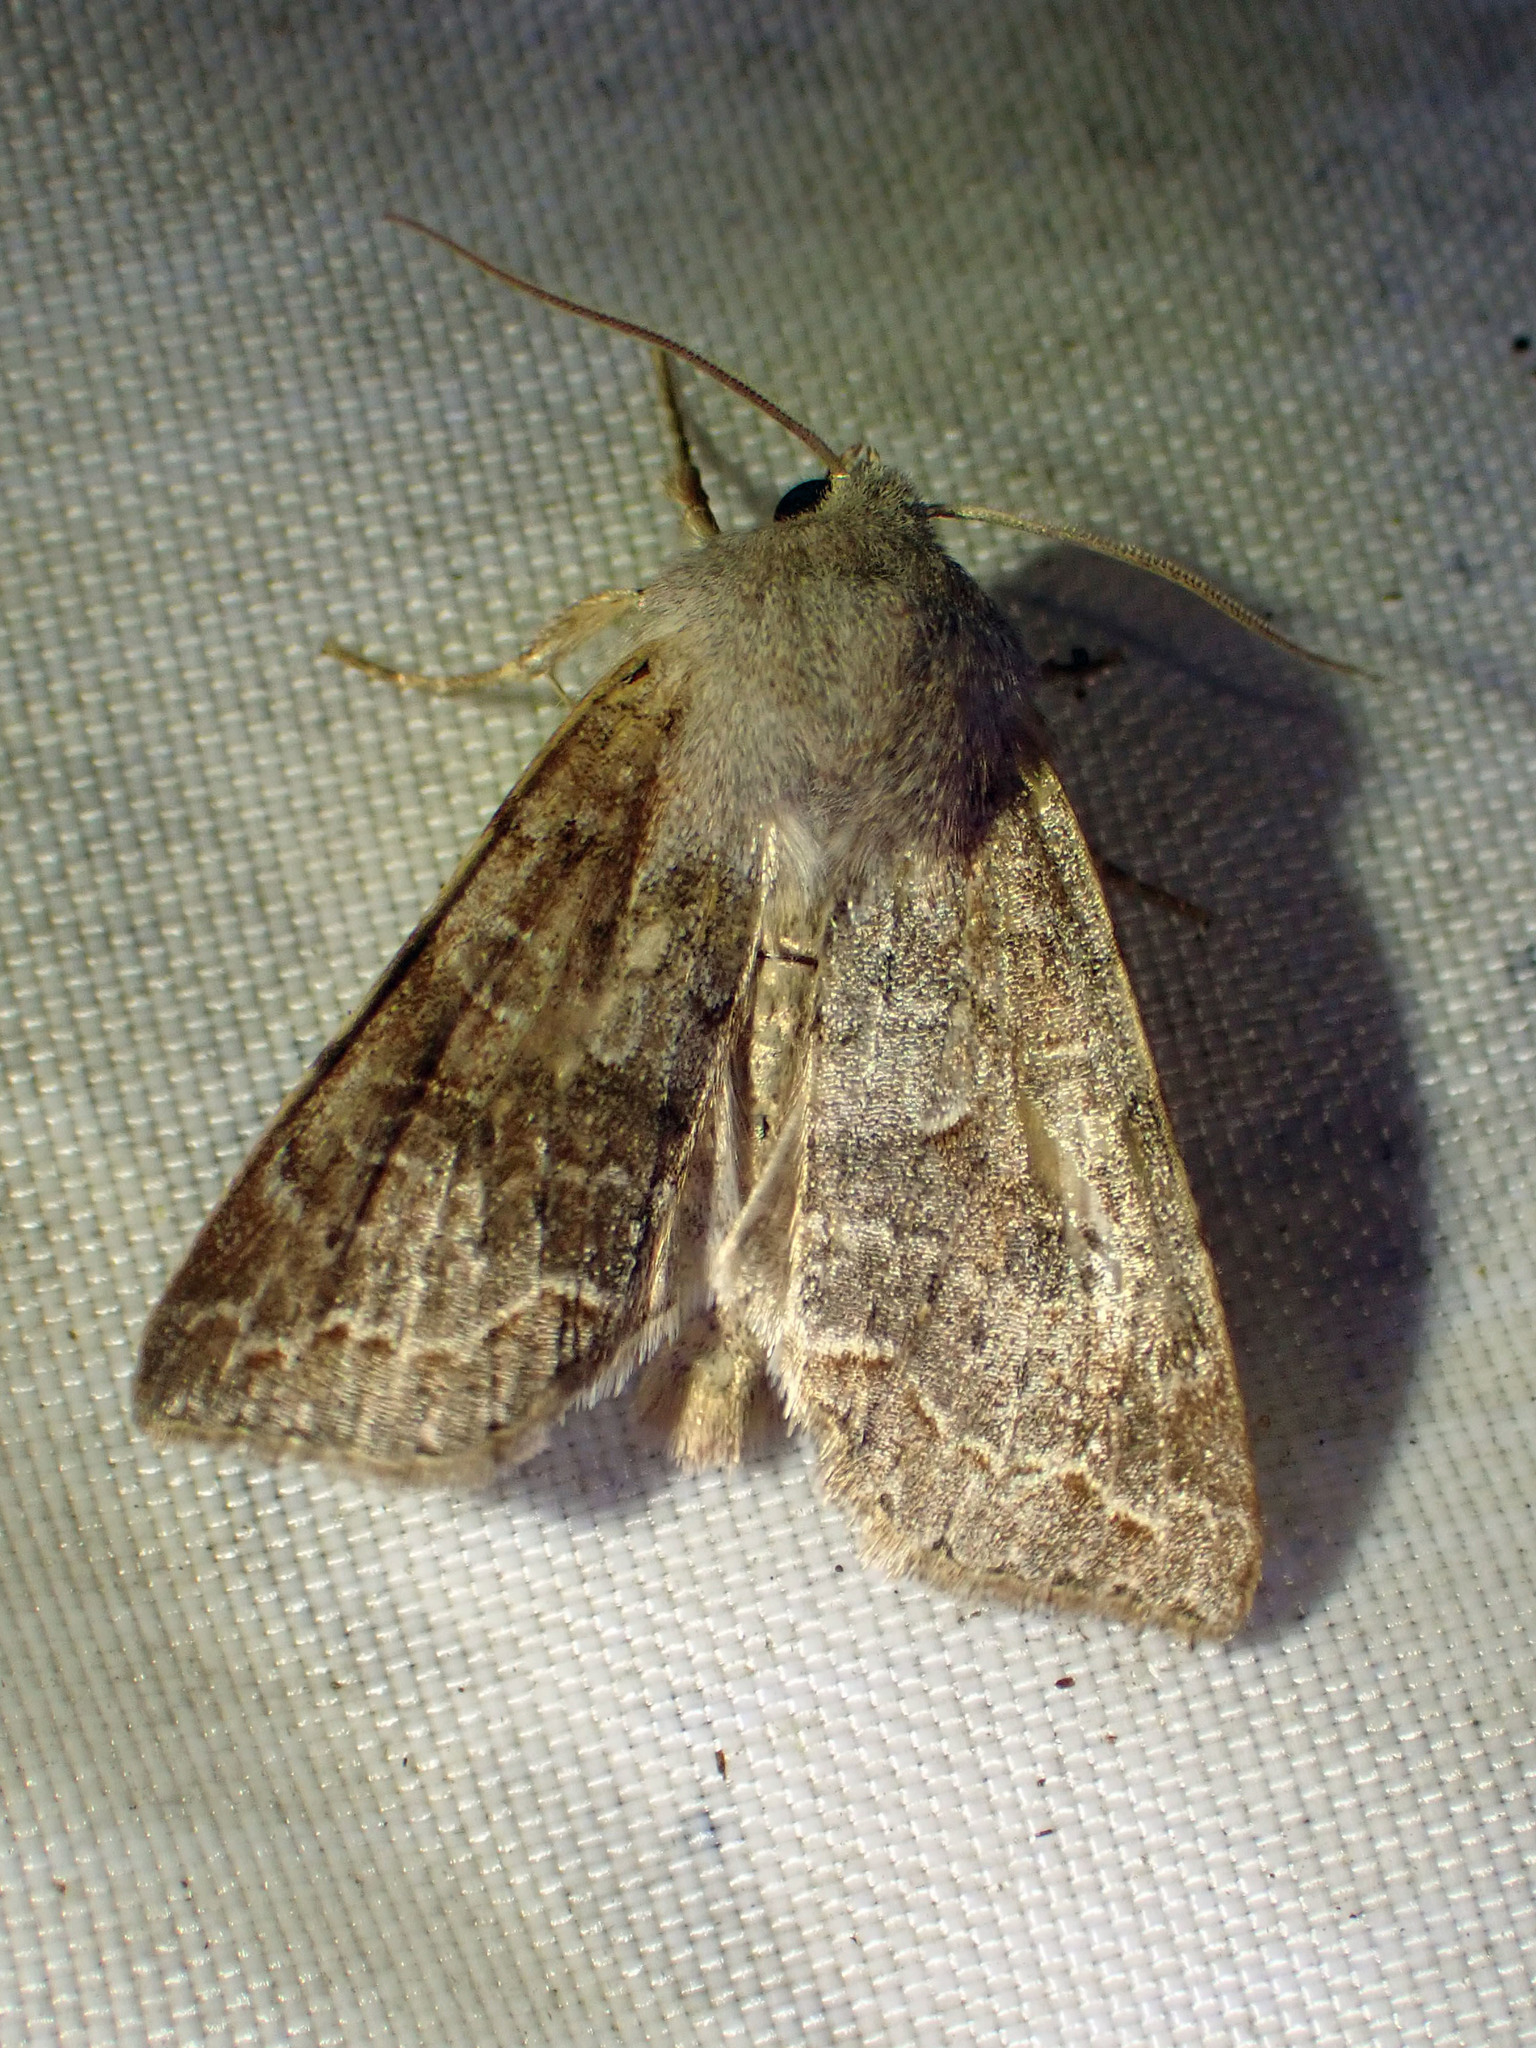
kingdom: Animalia
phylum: Arthropoda
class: Insecta
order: Lepidoptera
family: Noctuidae
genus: Orthosia
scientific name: Orthosia revicta
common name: Rusty whitesided caterpillar
